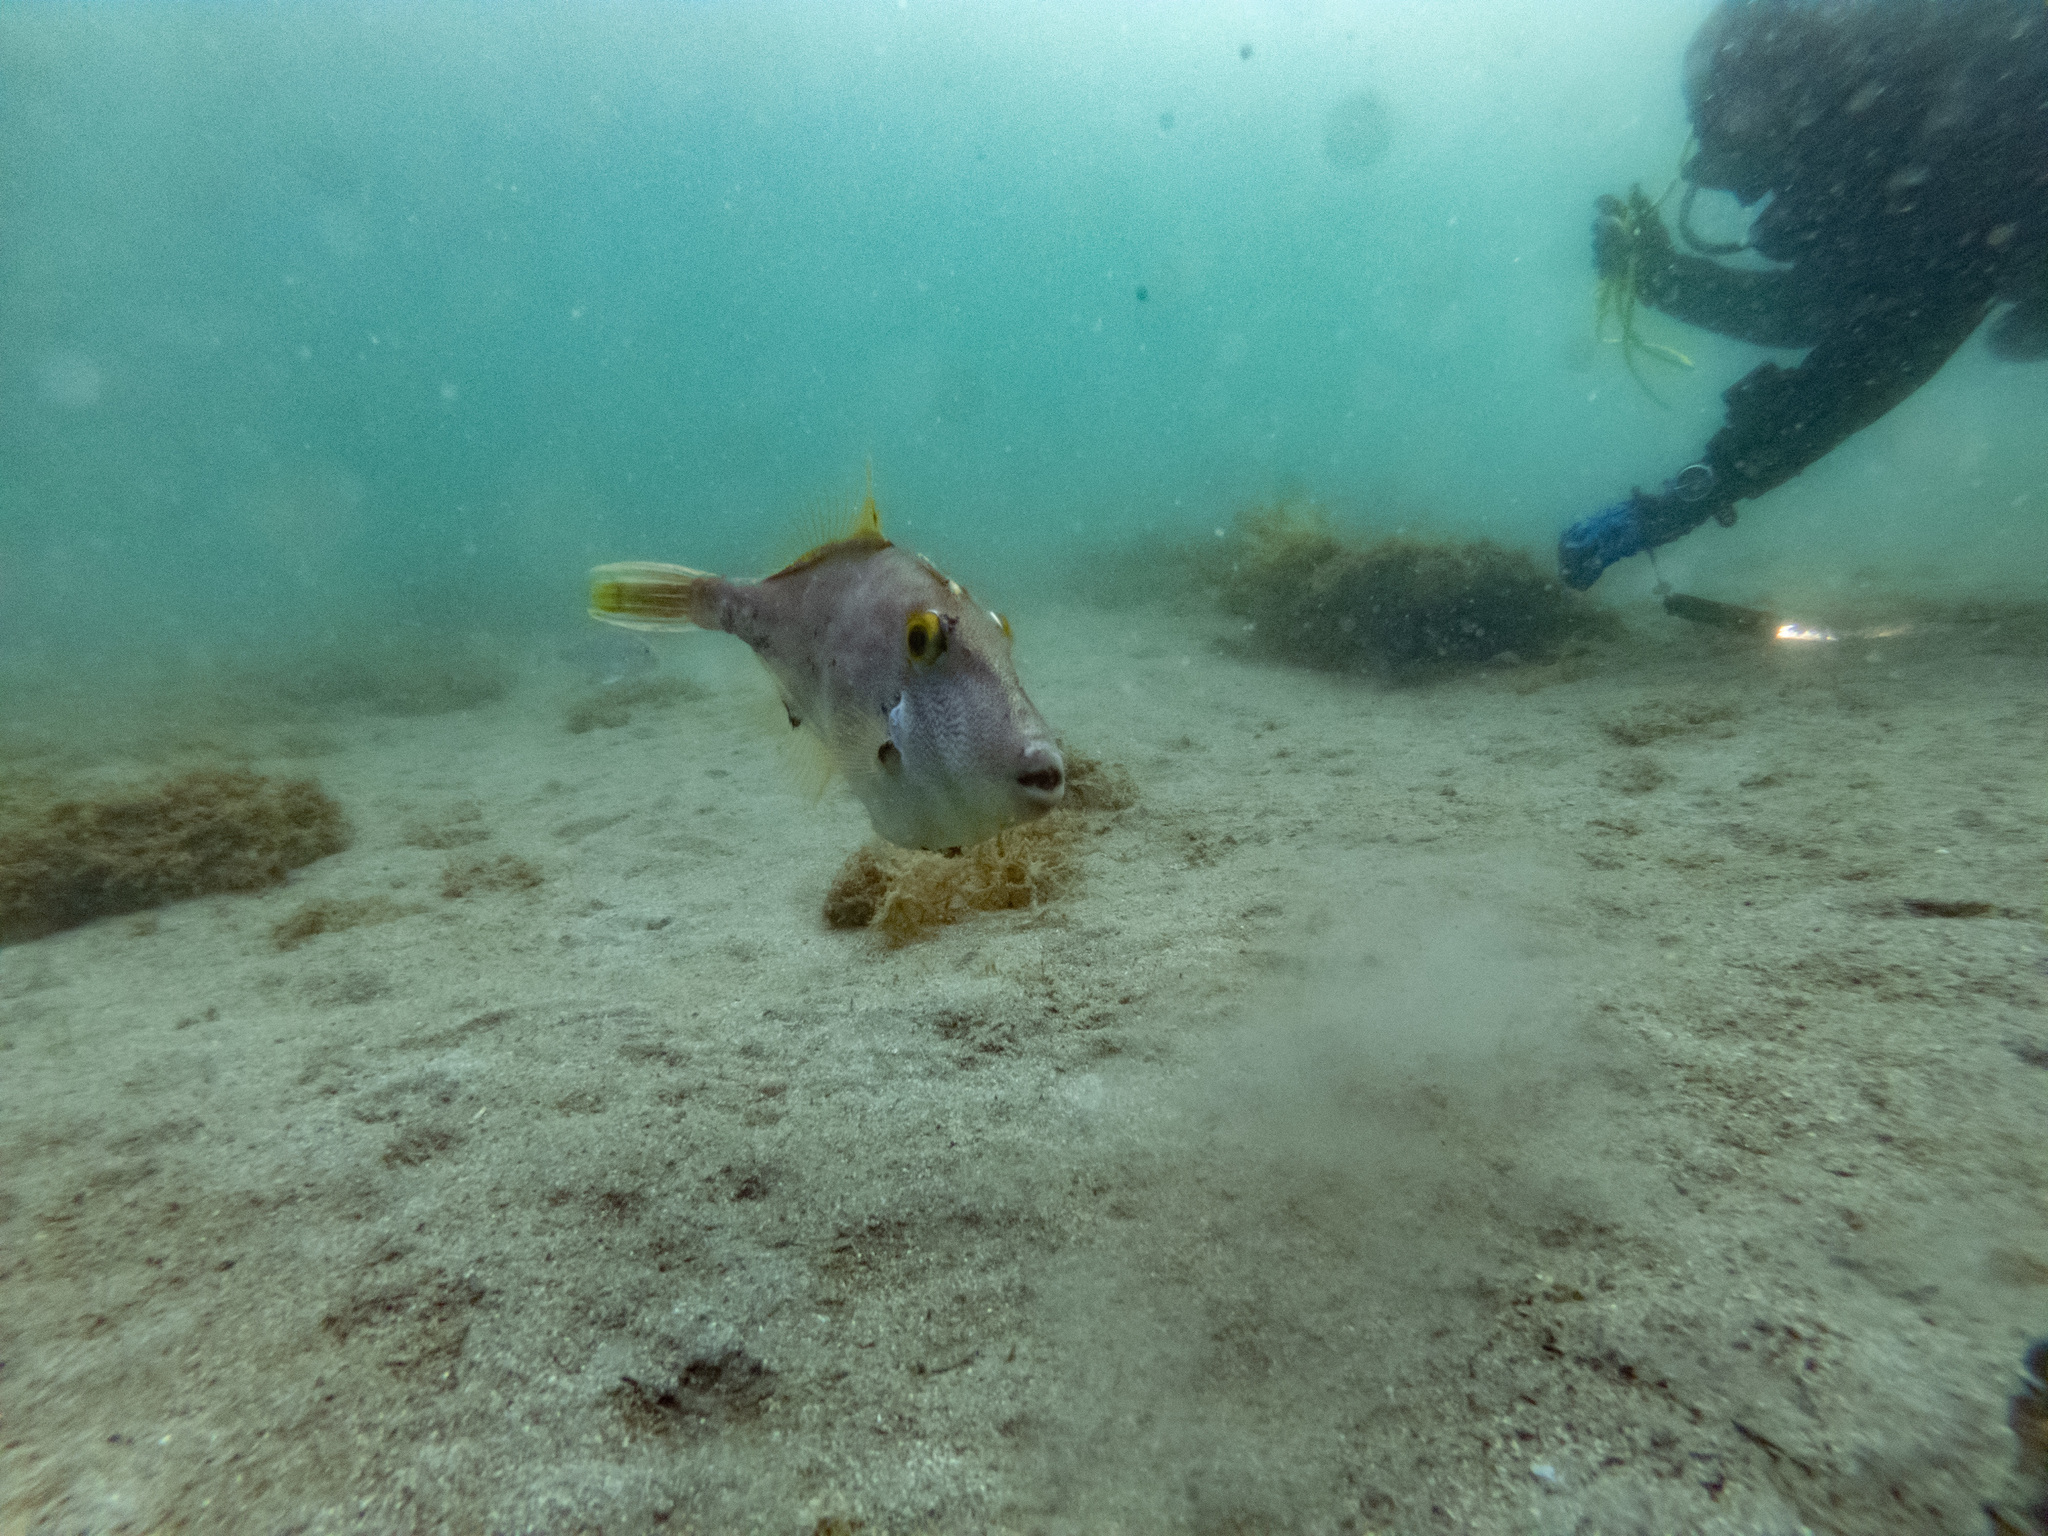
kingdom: Animalia
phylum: Chordata
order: Tetraodontiformes
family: Monacanthidae
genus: Meuschenia
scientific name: Meuschenia scaber
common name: Cosmopolitan leatherjacket
